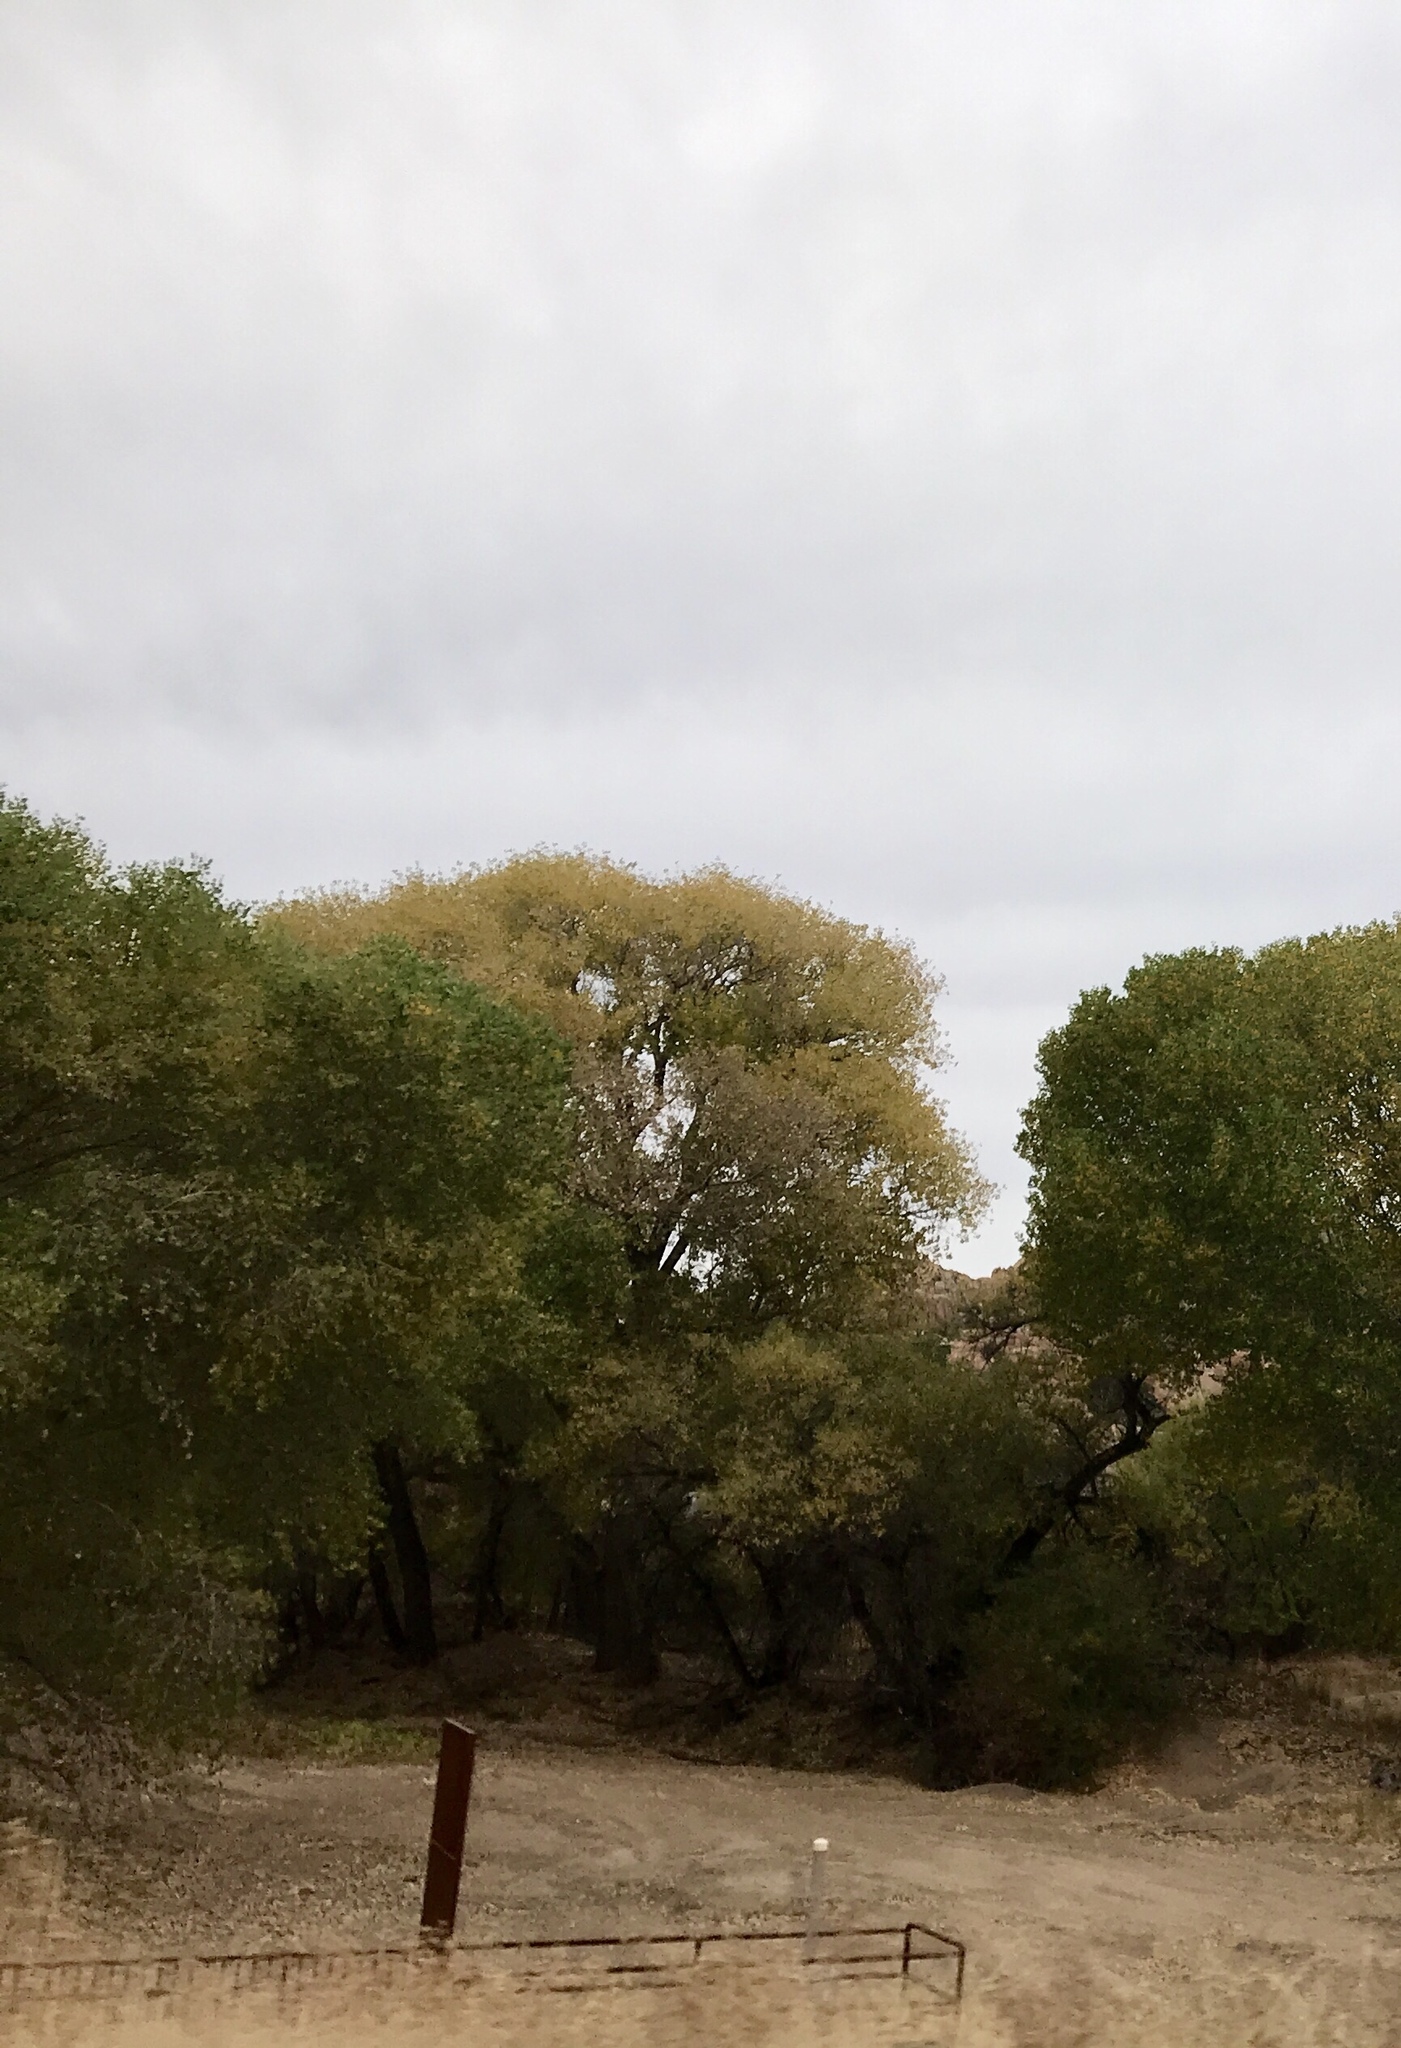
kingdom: Plantae
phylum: Tracheophyta
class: Magnoliopsida
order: Malpighiales
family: Salicaceae
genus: Populus
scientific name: Populus fremontii
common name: Fremont's cottonwood
